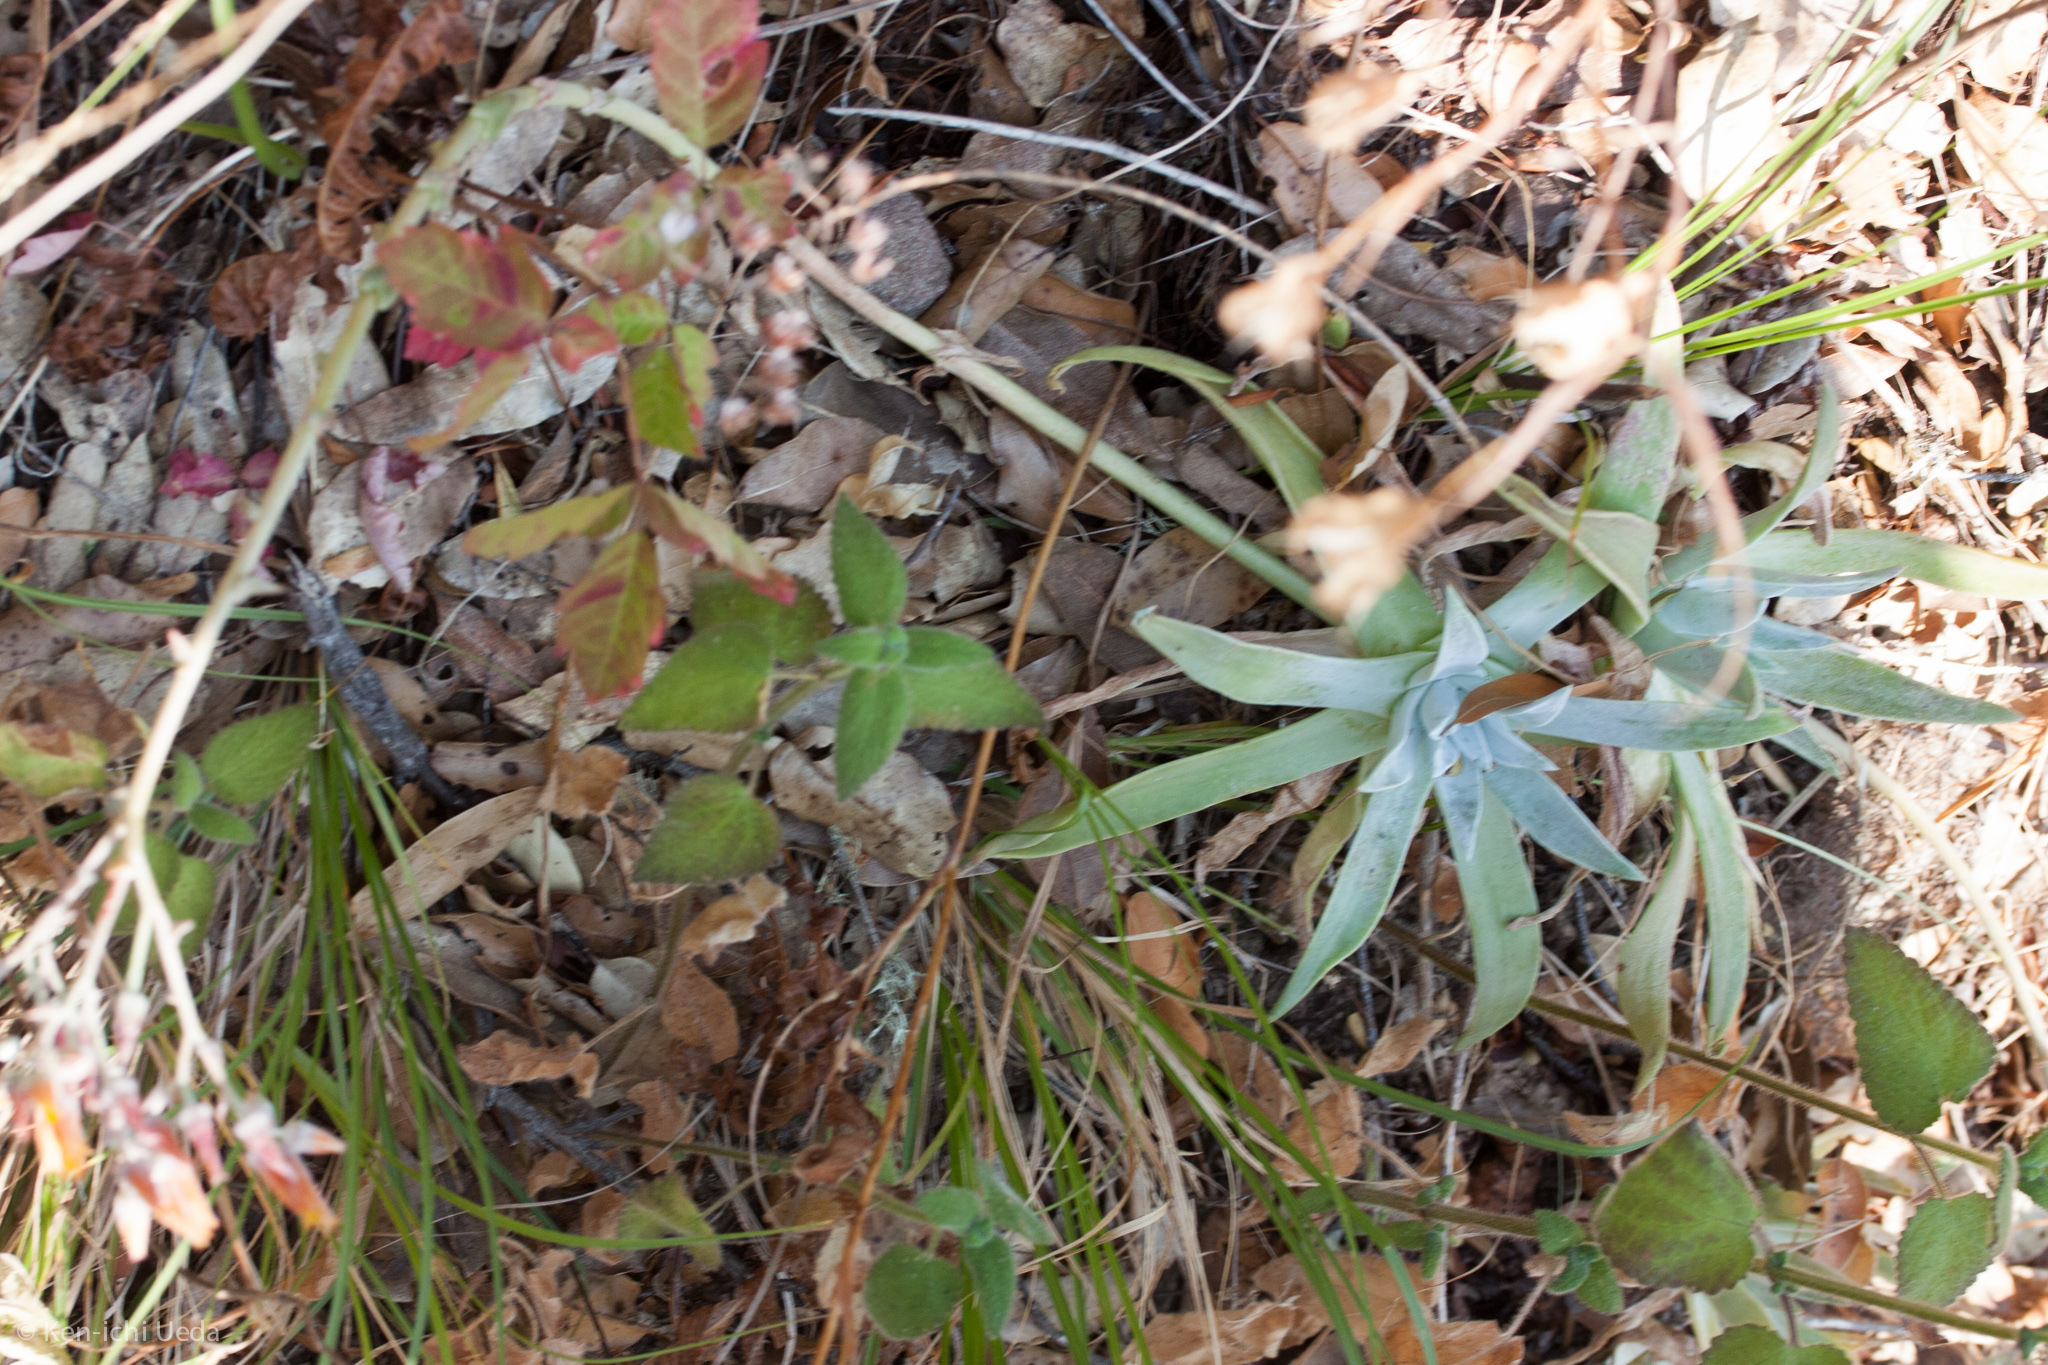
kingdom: Plantae
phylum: Tracheophyta
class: Magnoliopsida
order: Saxifragales
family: Crassulaceae
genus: Dudleya
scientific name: Dudleya lanceolata
